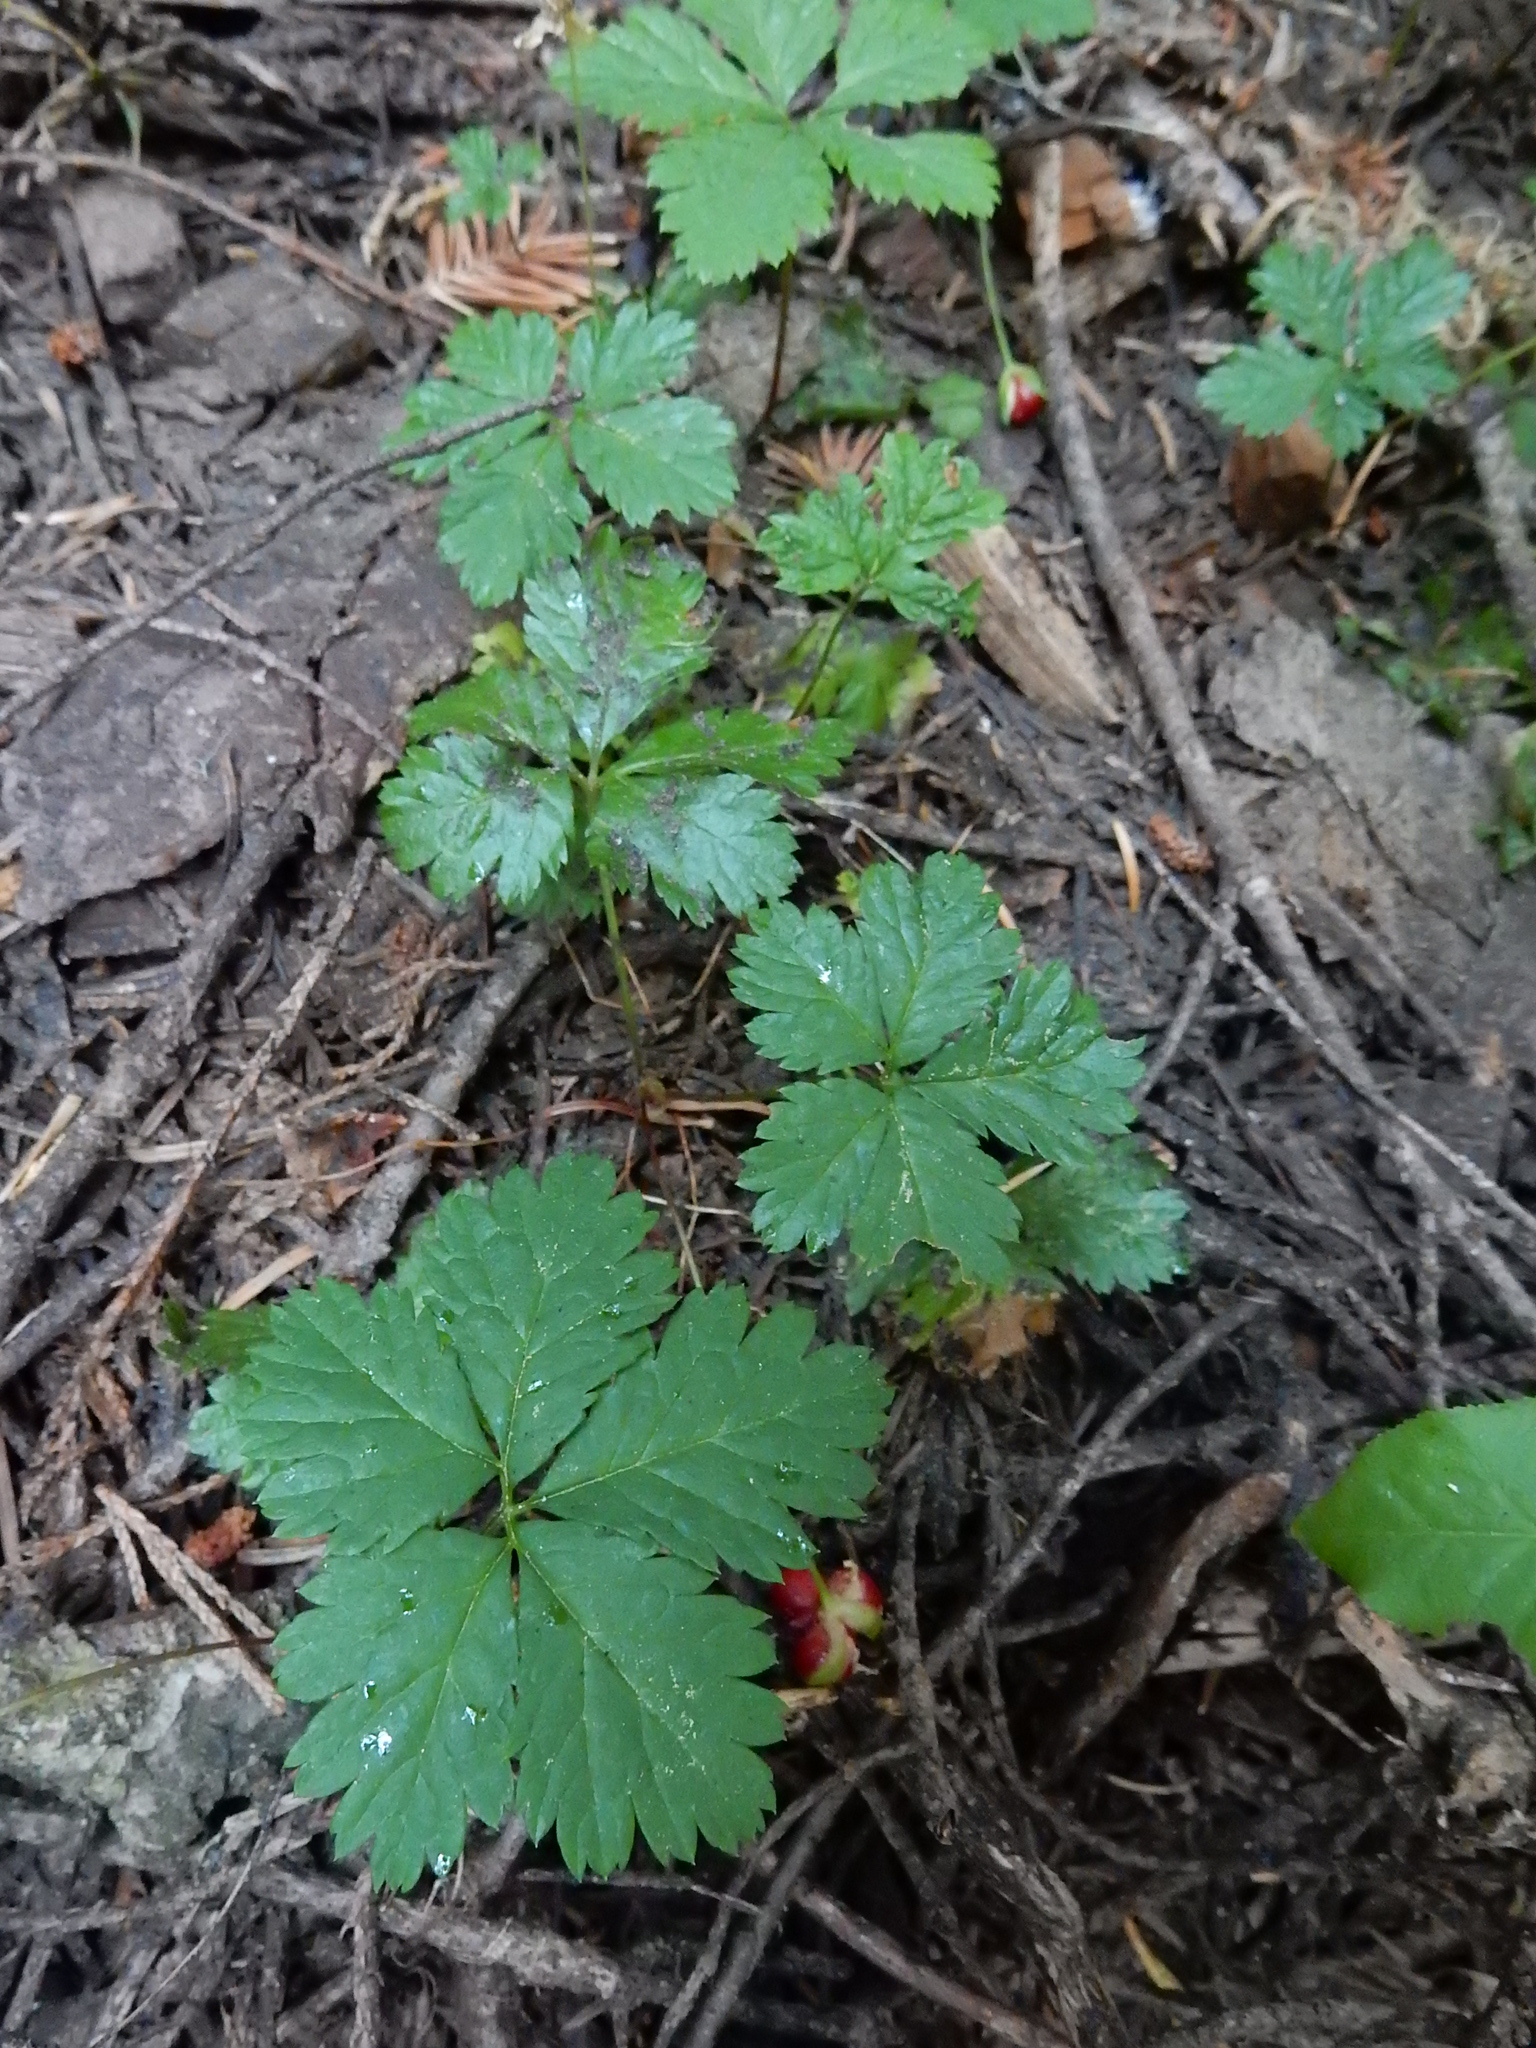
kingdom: Plantae
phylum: Tracheophyta
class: Magnoliopsida
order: Rosales
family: Rosaceae
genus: Rubus
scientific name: Rubus pedatus
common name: Creeping raspberry
